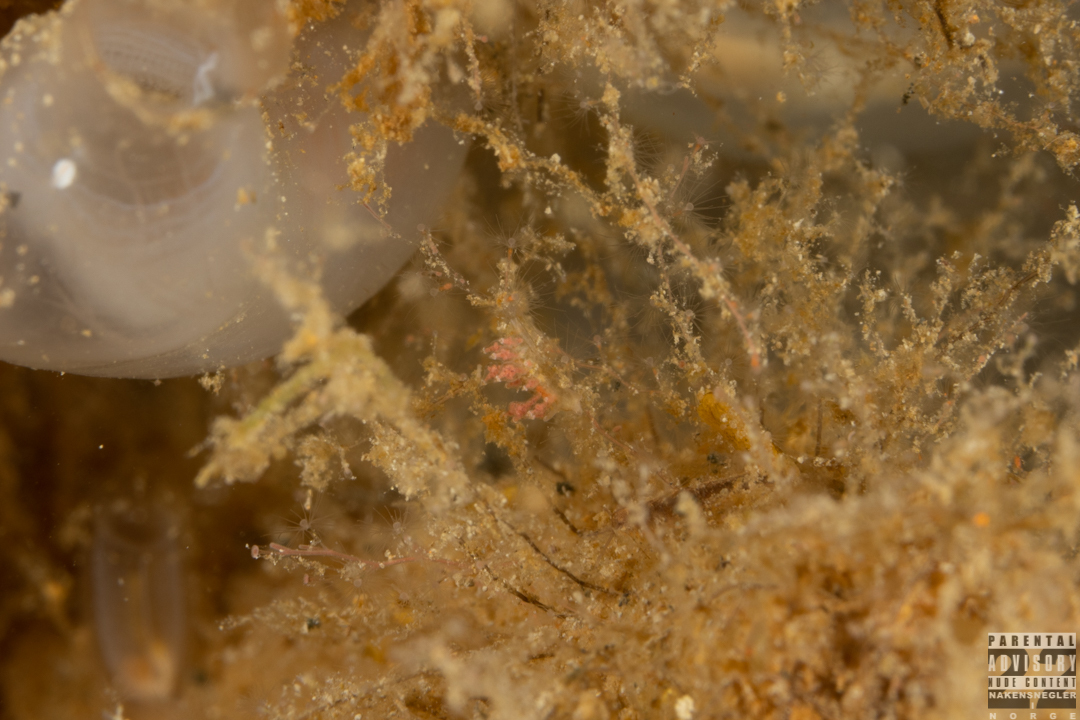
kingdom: Animalia
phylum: Mollusca
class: Gastropoda
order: Nudibranchia
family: Eubranchidae
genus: Eubranchus
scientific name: Eubranchus exiguus
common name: Balloon aeolis
